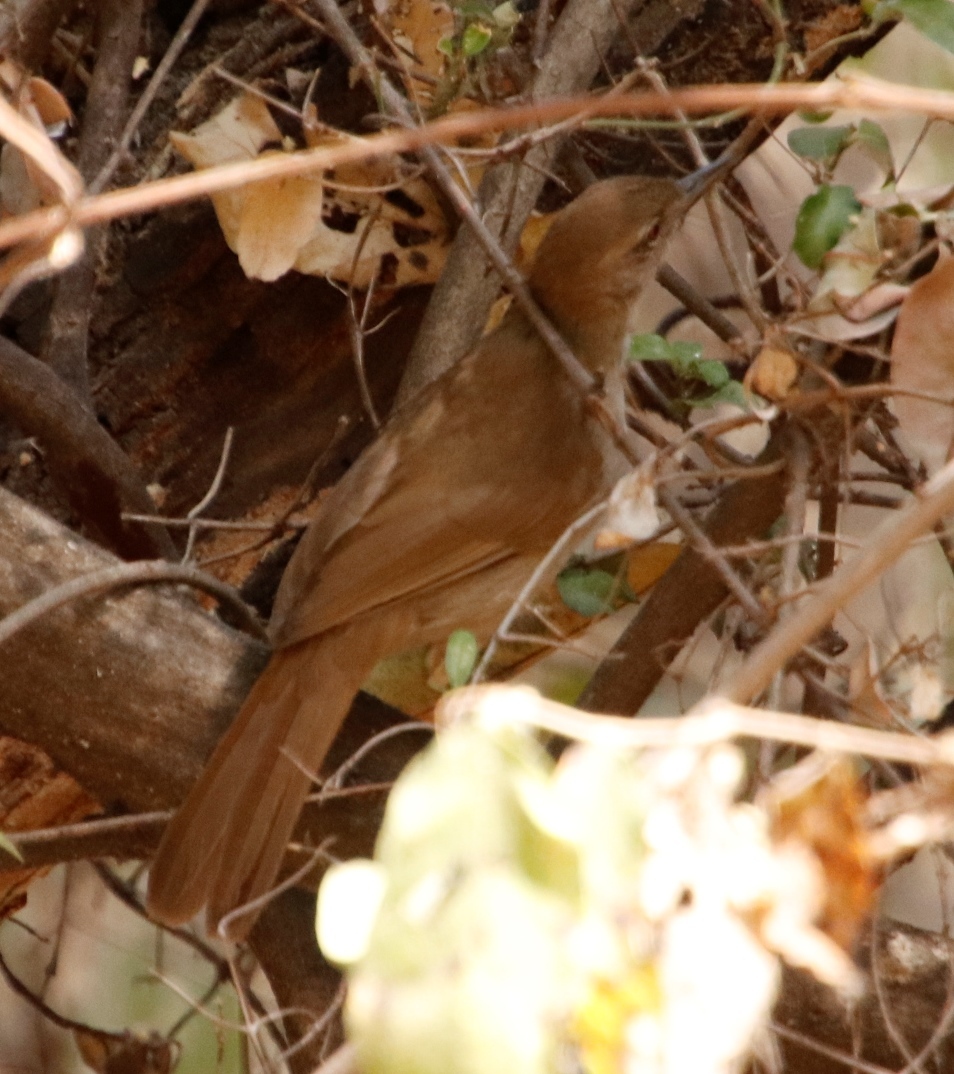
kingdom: Animalia
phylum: Chordata
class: Aves
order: Passeriformes
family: Pycnonotidae
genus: Phyllastrephus
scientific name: Phyllastrephus terrestris
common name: Terrestrial brownbul
